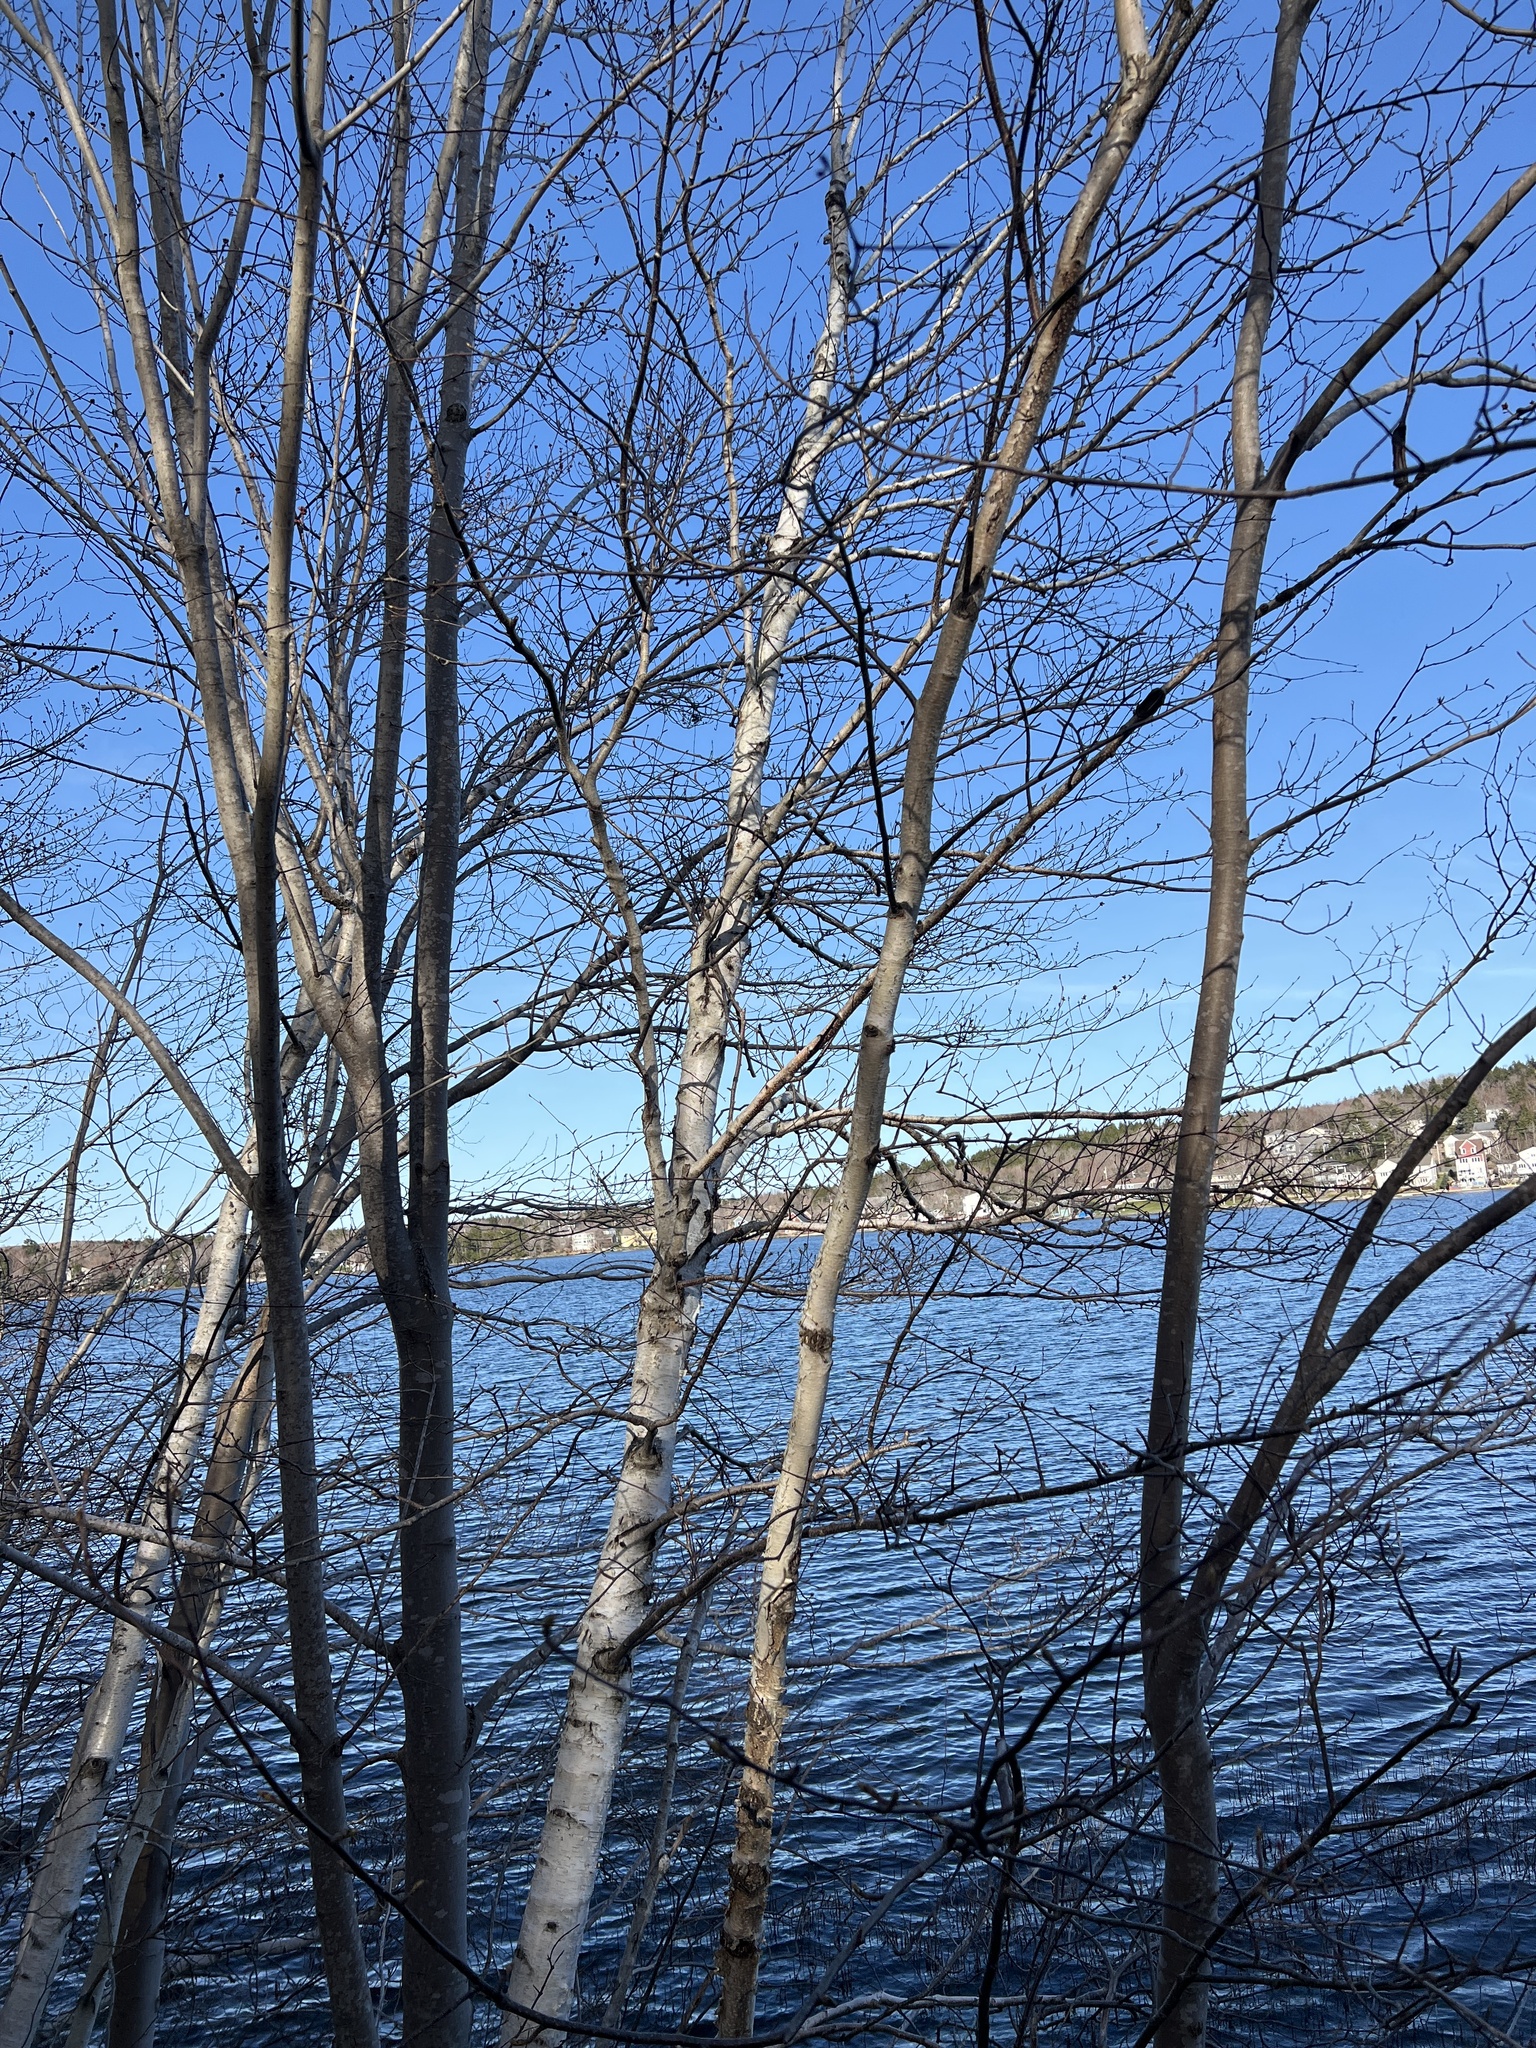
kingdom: Fungi
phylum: Ascomycota
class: Dothideomycetes
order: Venturiales
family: Venturiaceae
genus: Apiosporina
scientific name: Apiosporina morbosa
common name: Black knot
